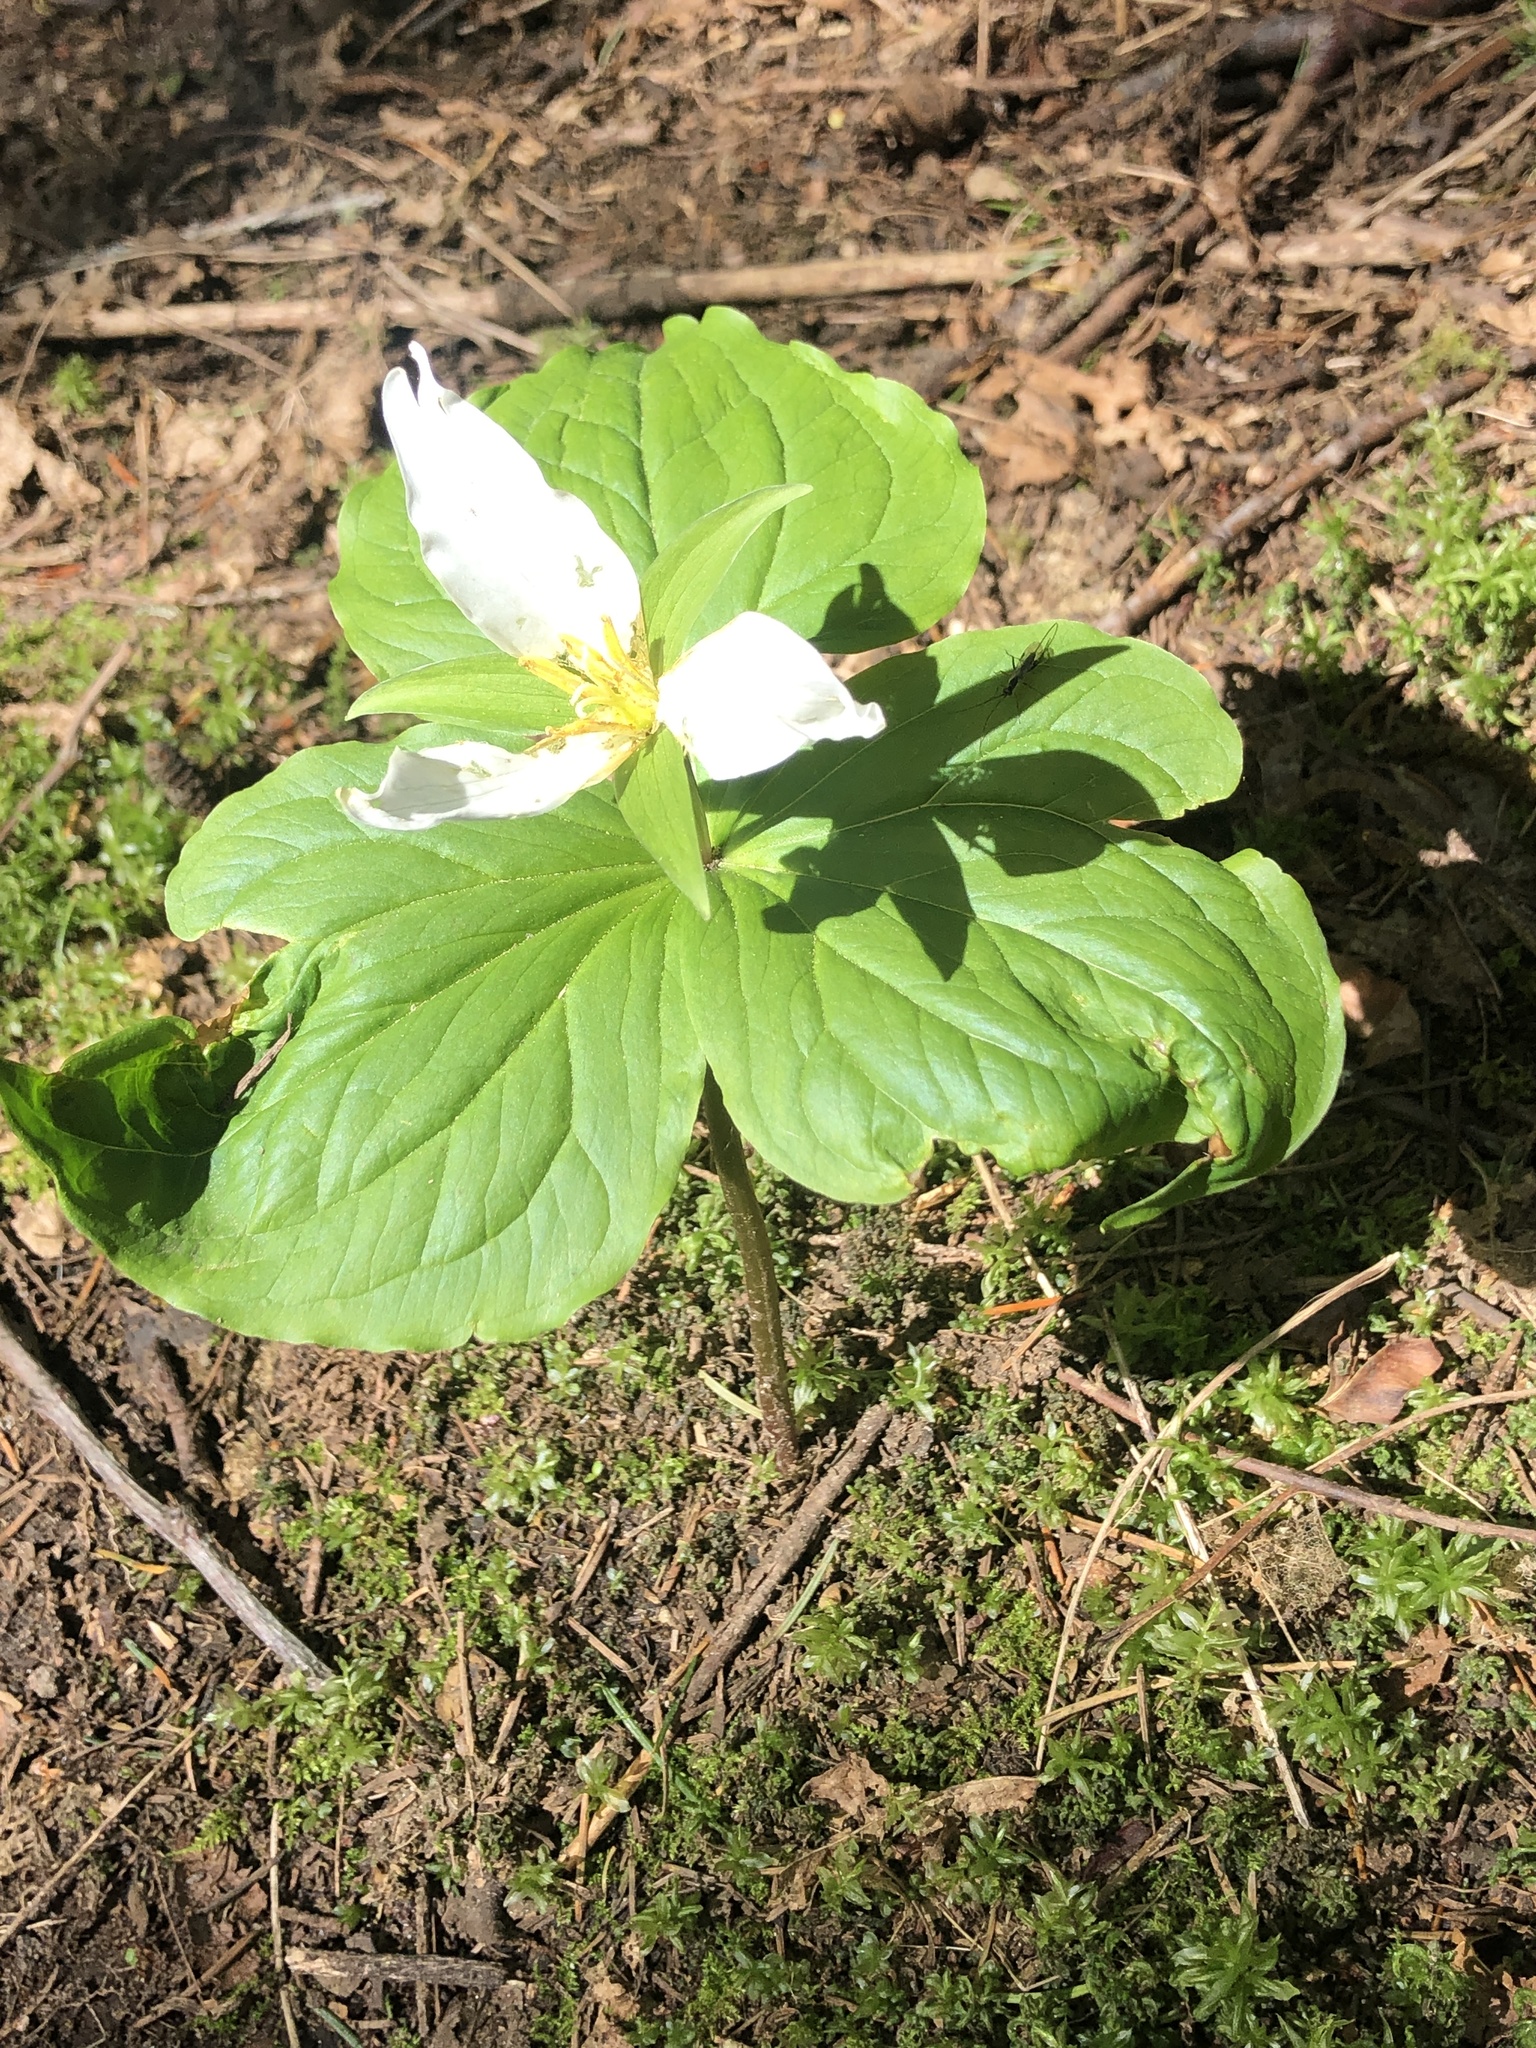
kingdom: Plantae
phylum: Tracheophyta
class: Liliopsida
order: Liliales
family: Melanthiaceae
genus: Trillium
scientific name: Trillium ovatum
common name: Pacific trillium
